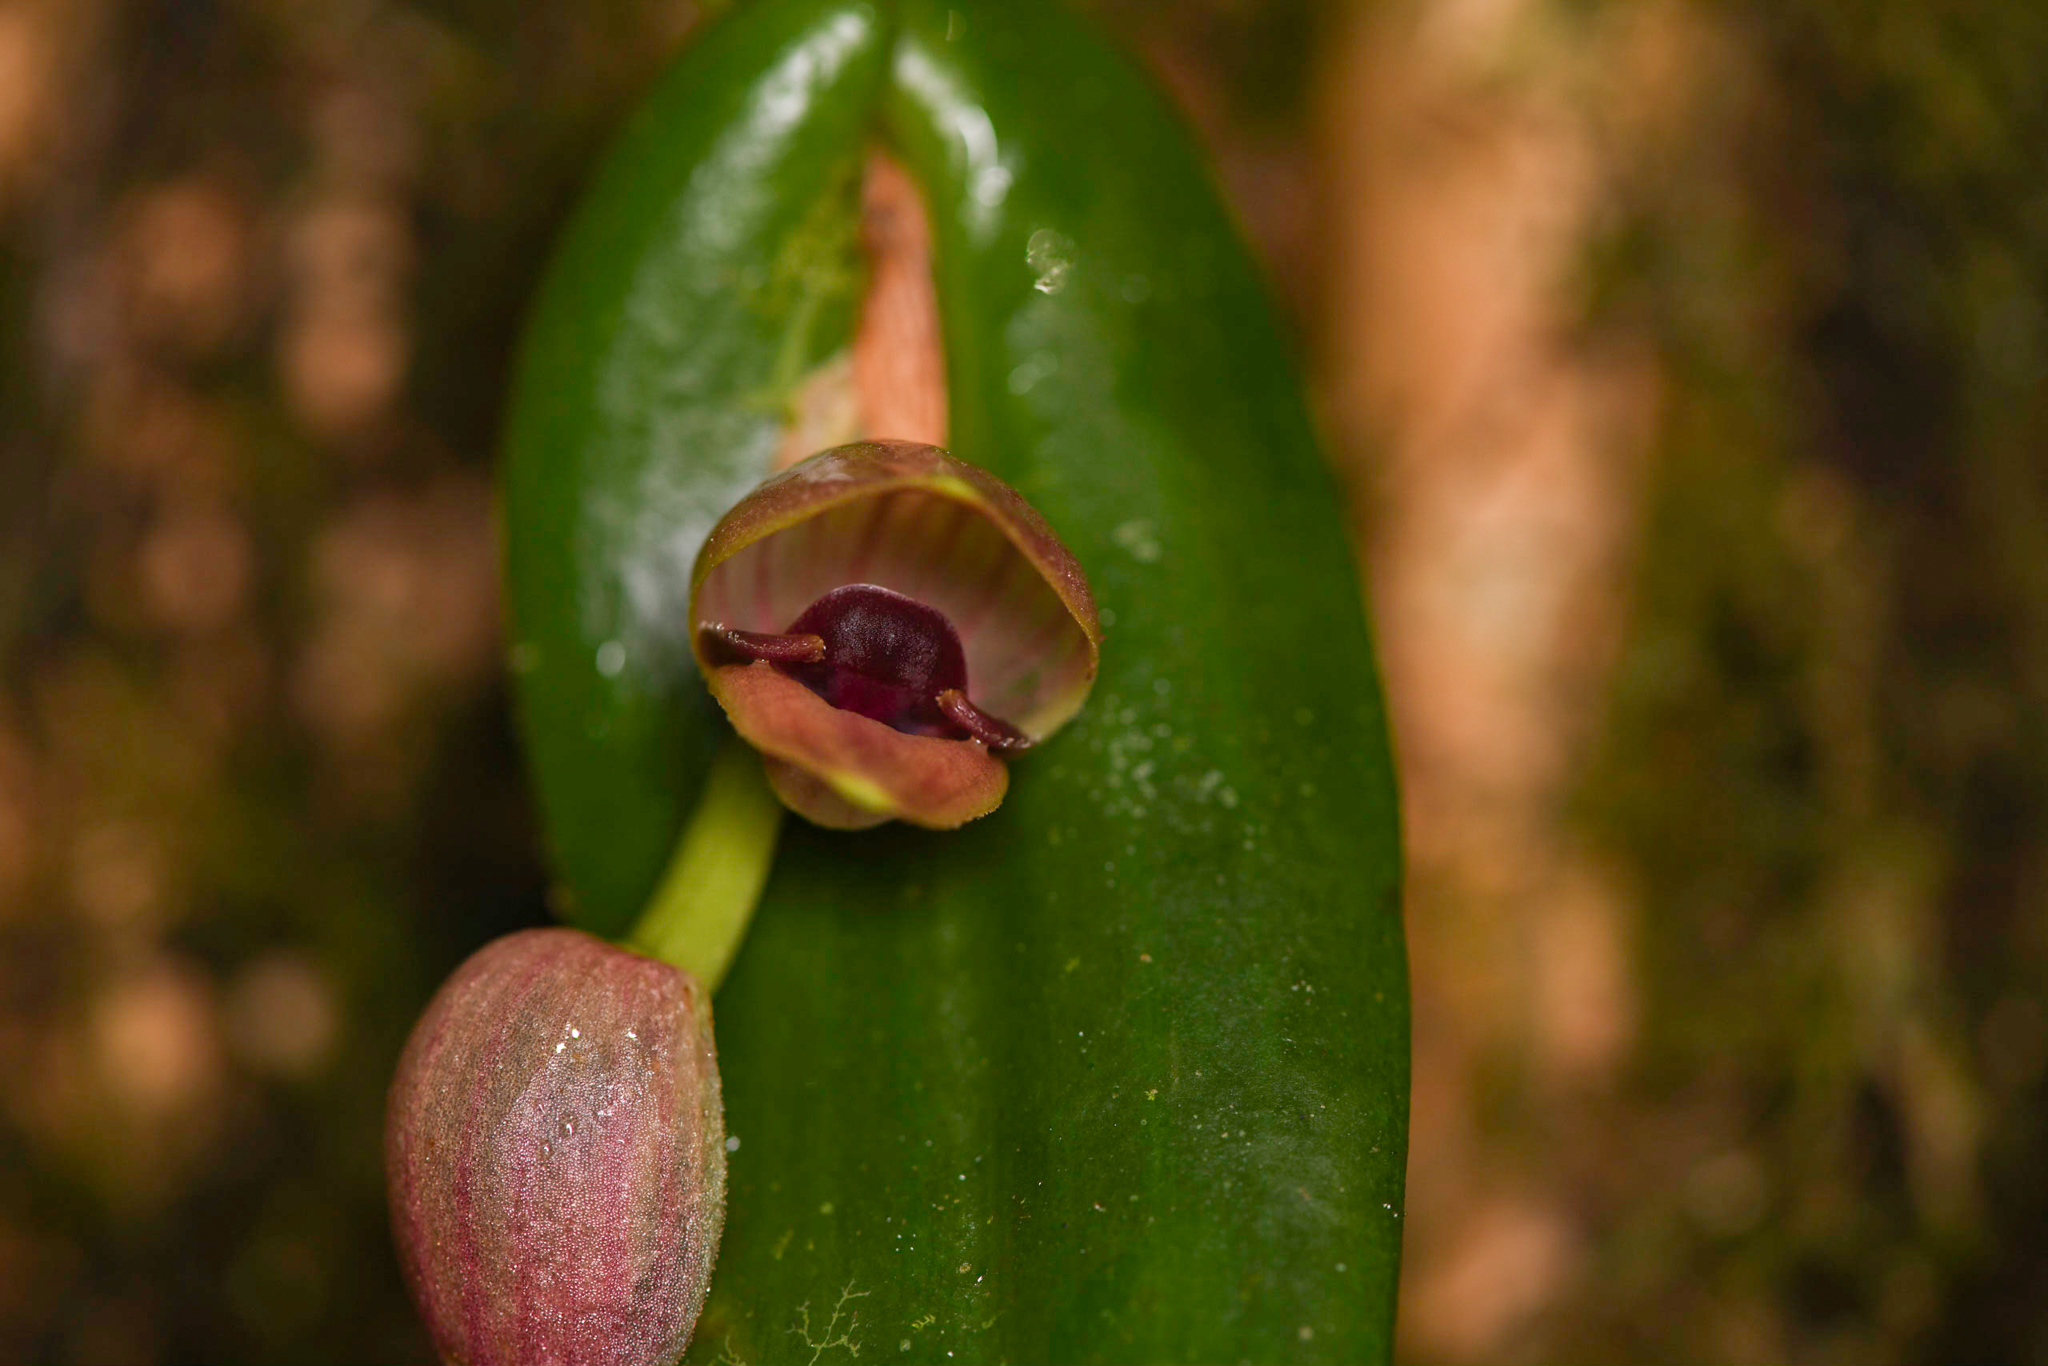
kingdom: Plantae
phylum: Tracheophyta
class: Liliopsida
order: Asparagales
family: Orchidaceae
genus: Pleurothallis
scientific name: Pleurothallis palliolata
